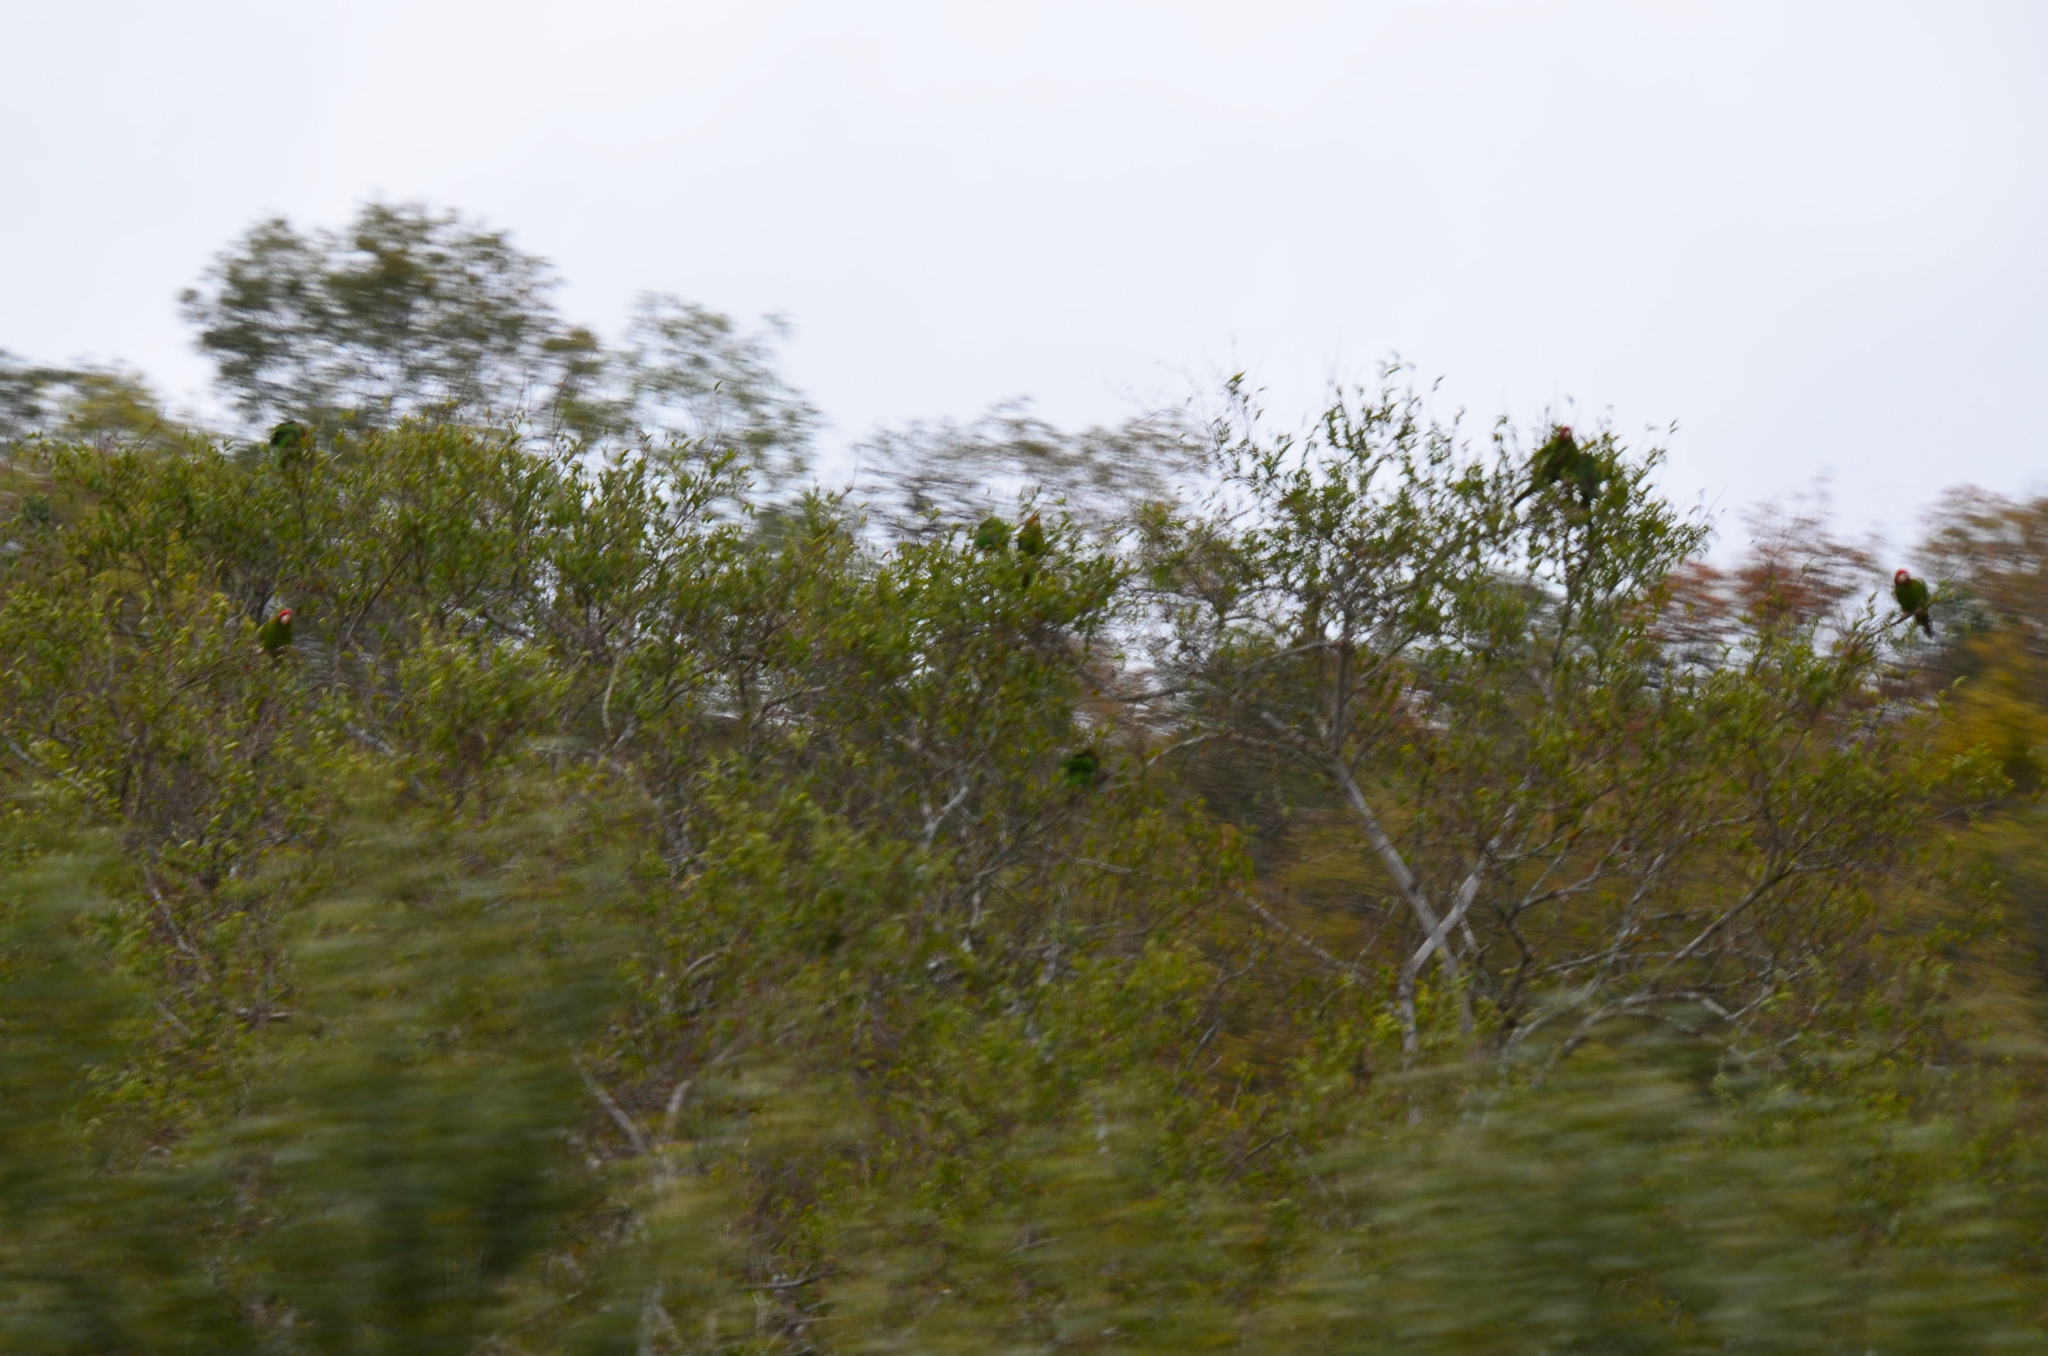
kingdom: Animalia
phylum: Chordata
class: Aves
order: Psittaciformes
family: Psittacidae
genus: Aratinga
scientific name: Aratinga mitrata
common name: Mitred parakeet
